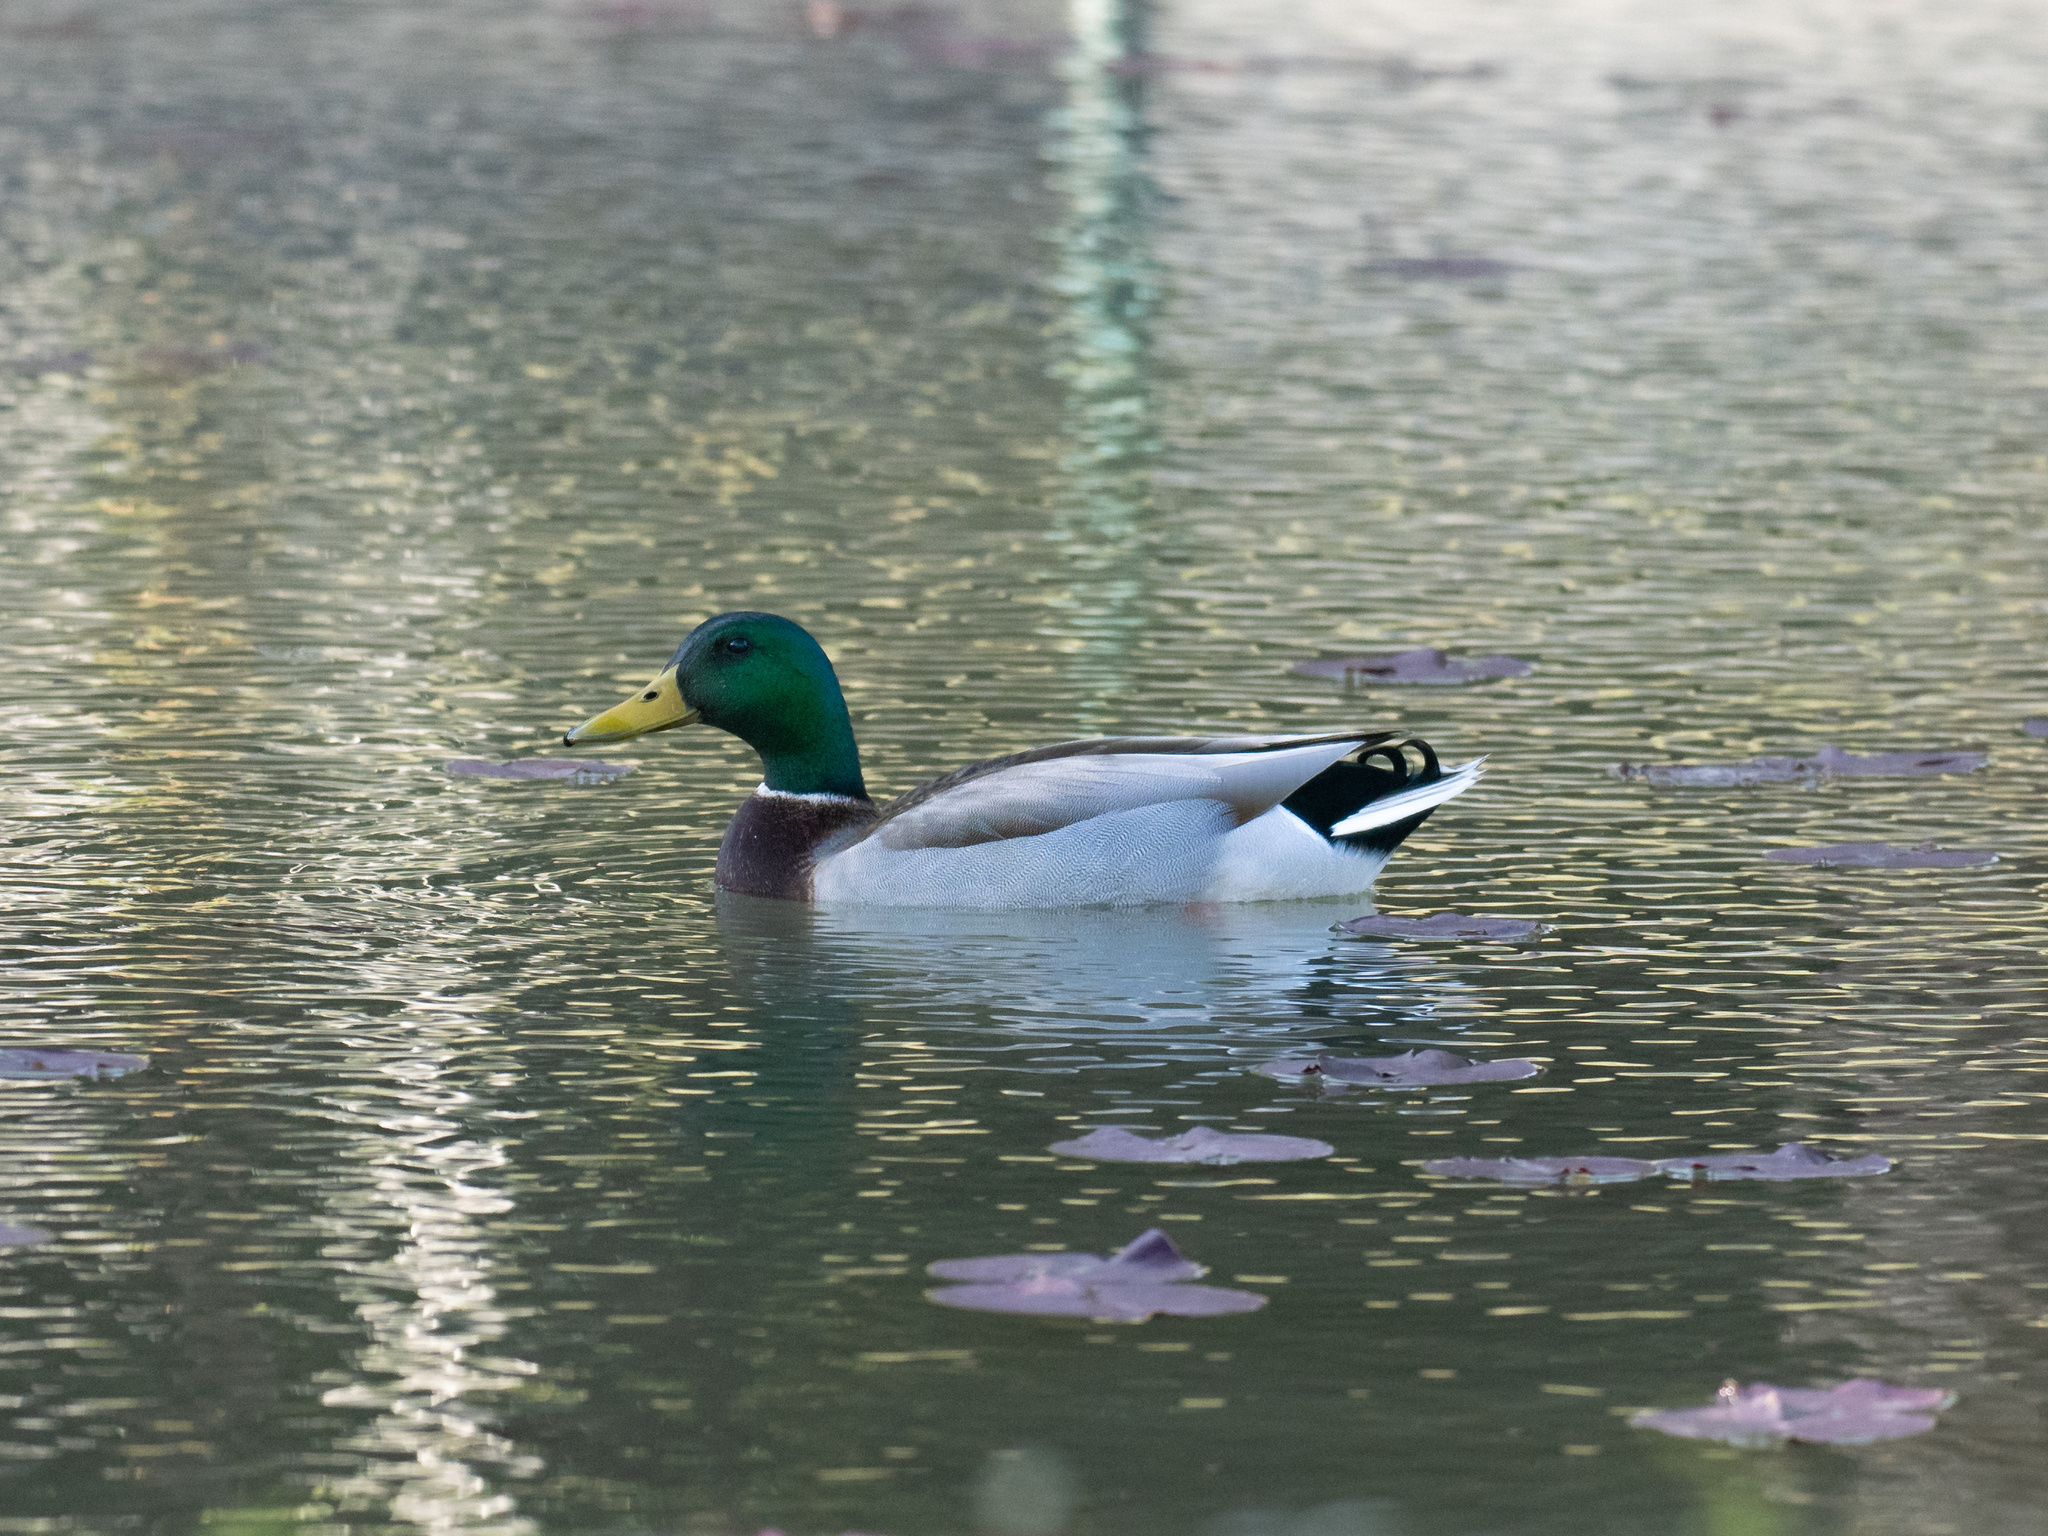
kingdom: Animalia
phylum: Chordata
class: Aves
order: Anseriformes
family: Anatidae
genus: Anas
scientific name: Anas platyrhynchos
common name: Mallard
